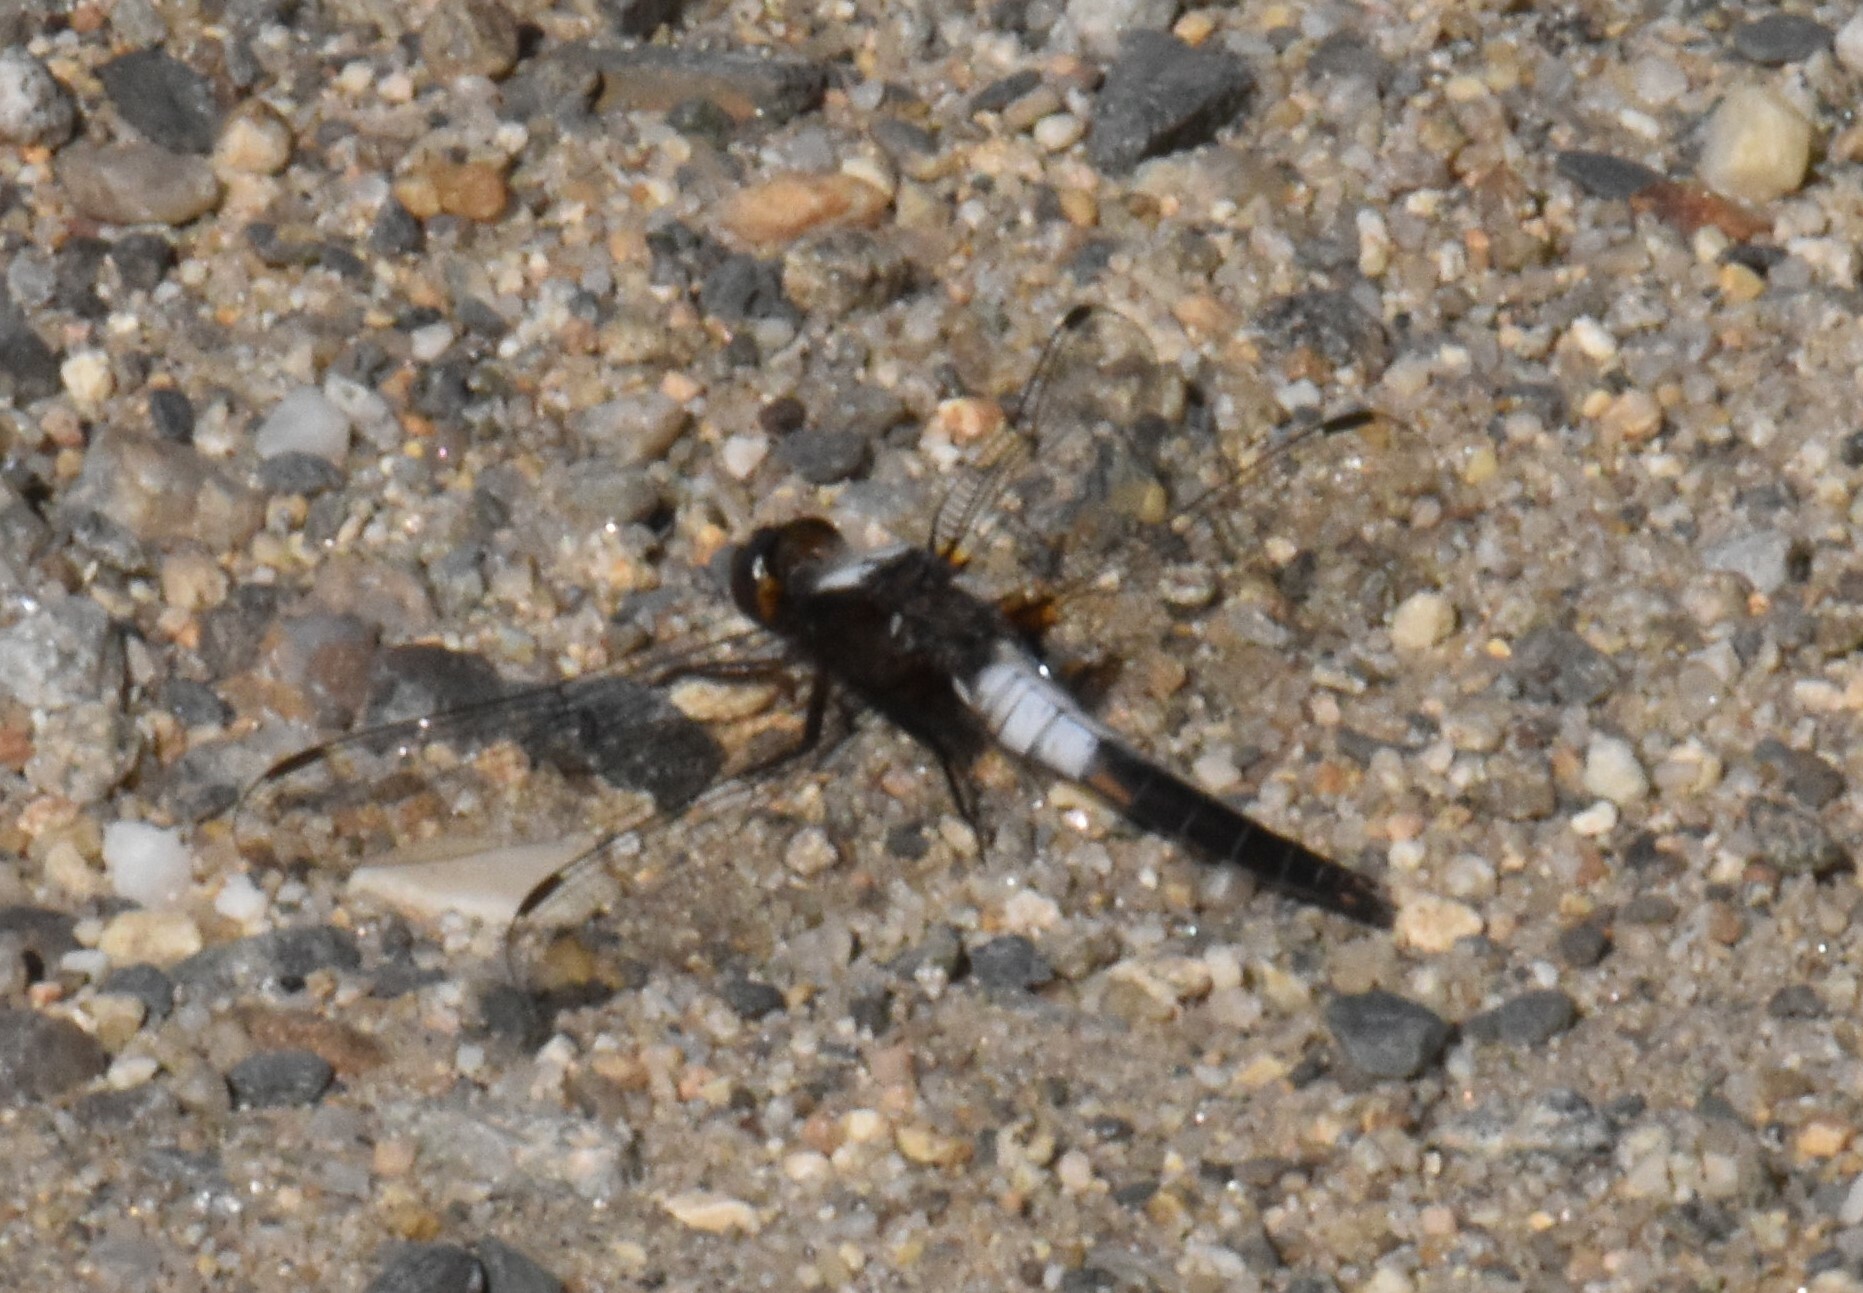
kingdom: Animalia
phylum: Arthropoda
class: Insecta
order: Odonata
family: Libellulidae
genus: Ladona
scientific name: Ladona julia
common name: Chalk-fronted corporal
